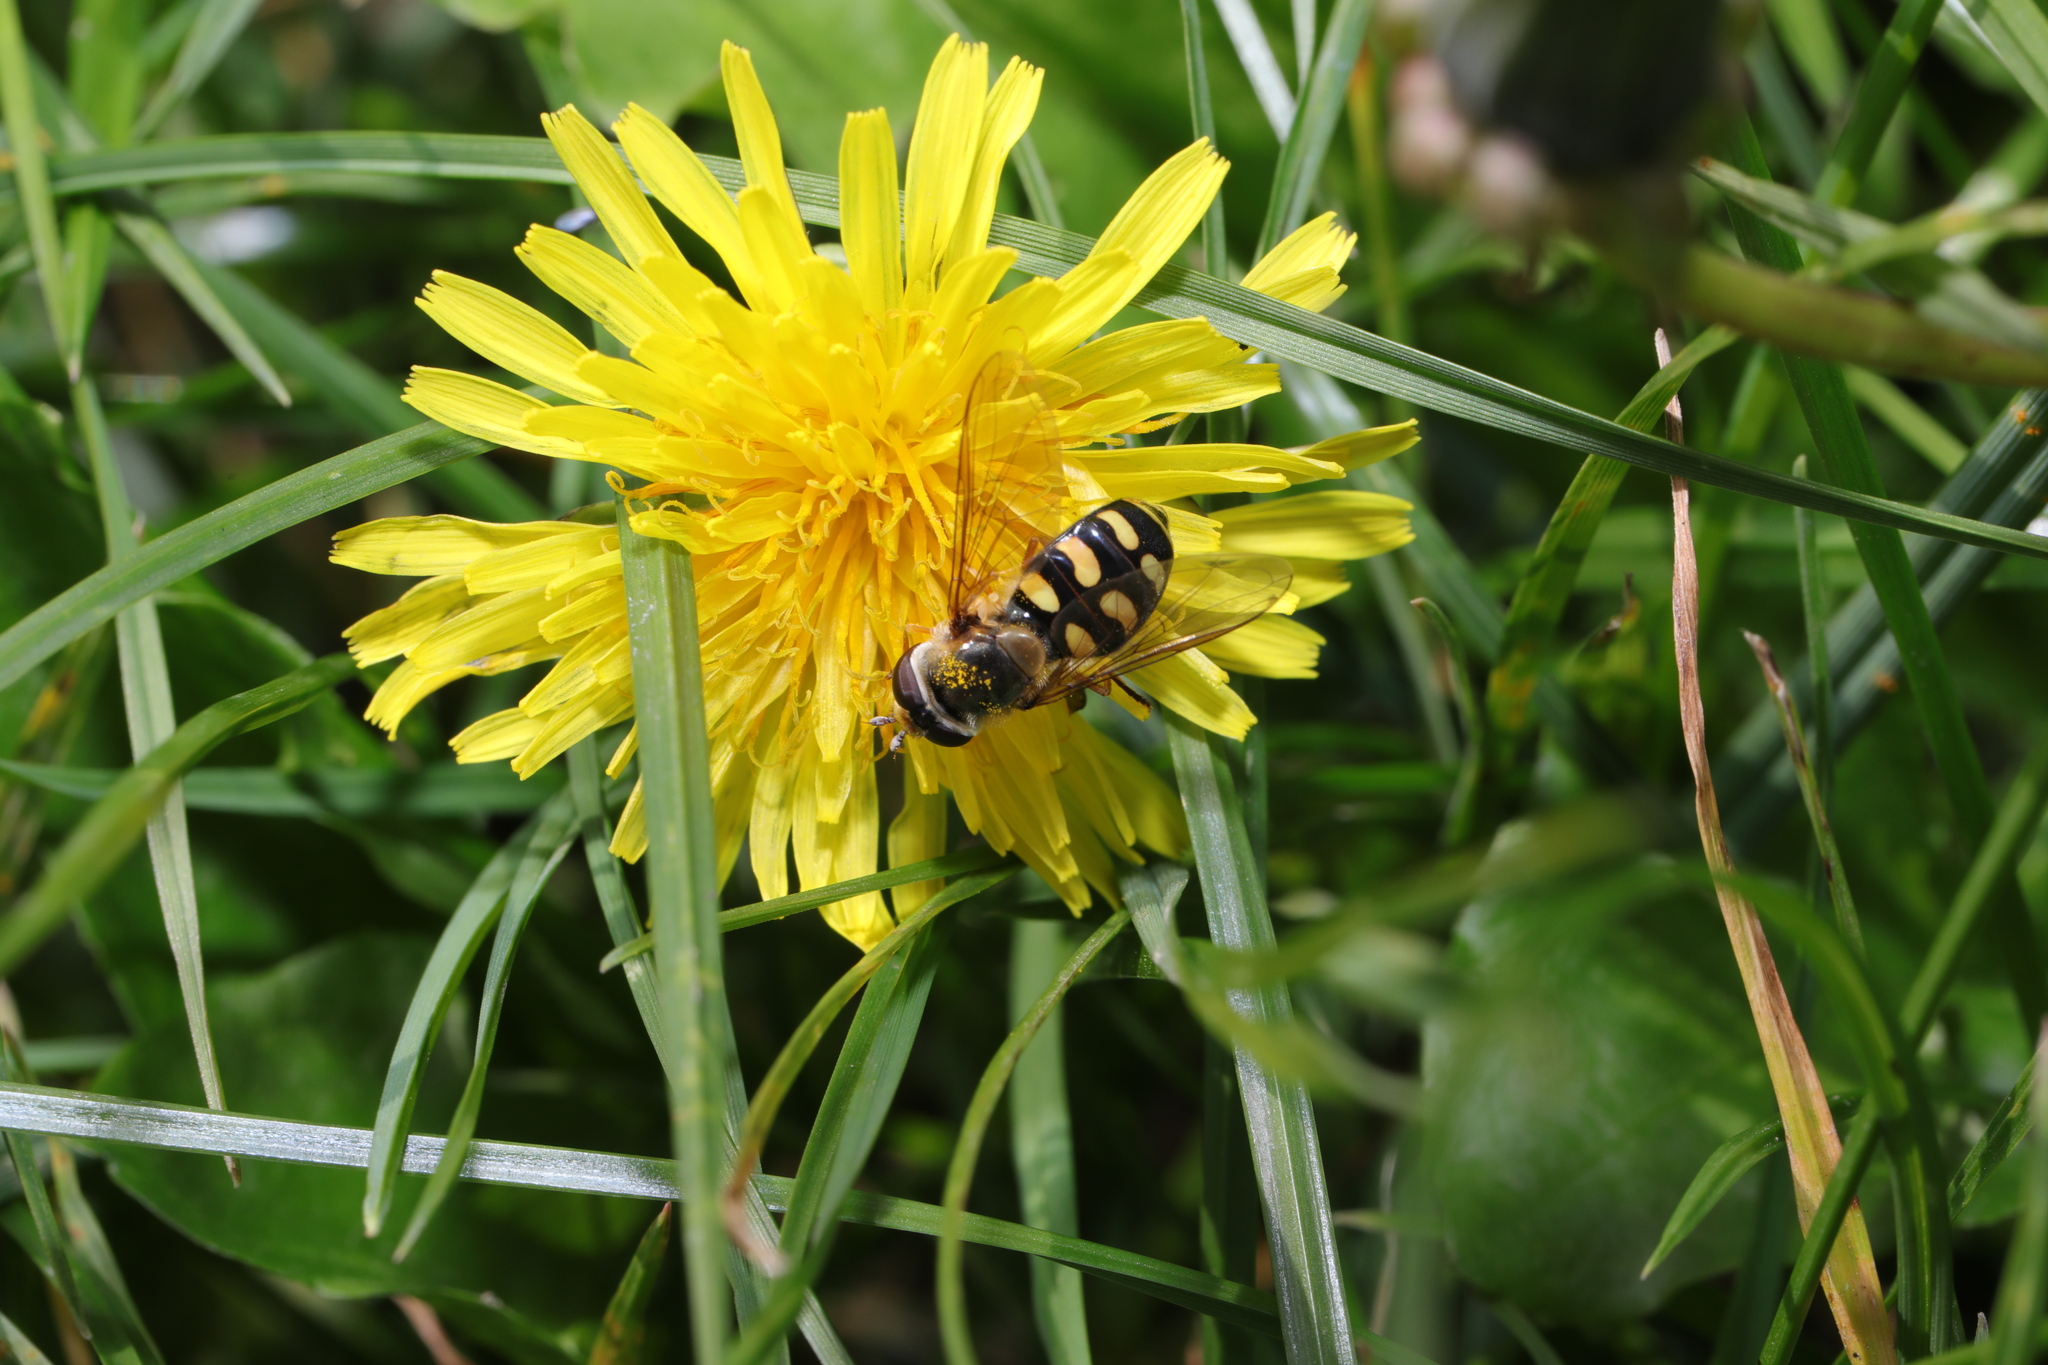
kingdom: Animalia
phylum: Arthropoda
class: Insecta
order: Diptera
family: Syrphidae
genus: Eupeodes
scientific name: Eupeodes
